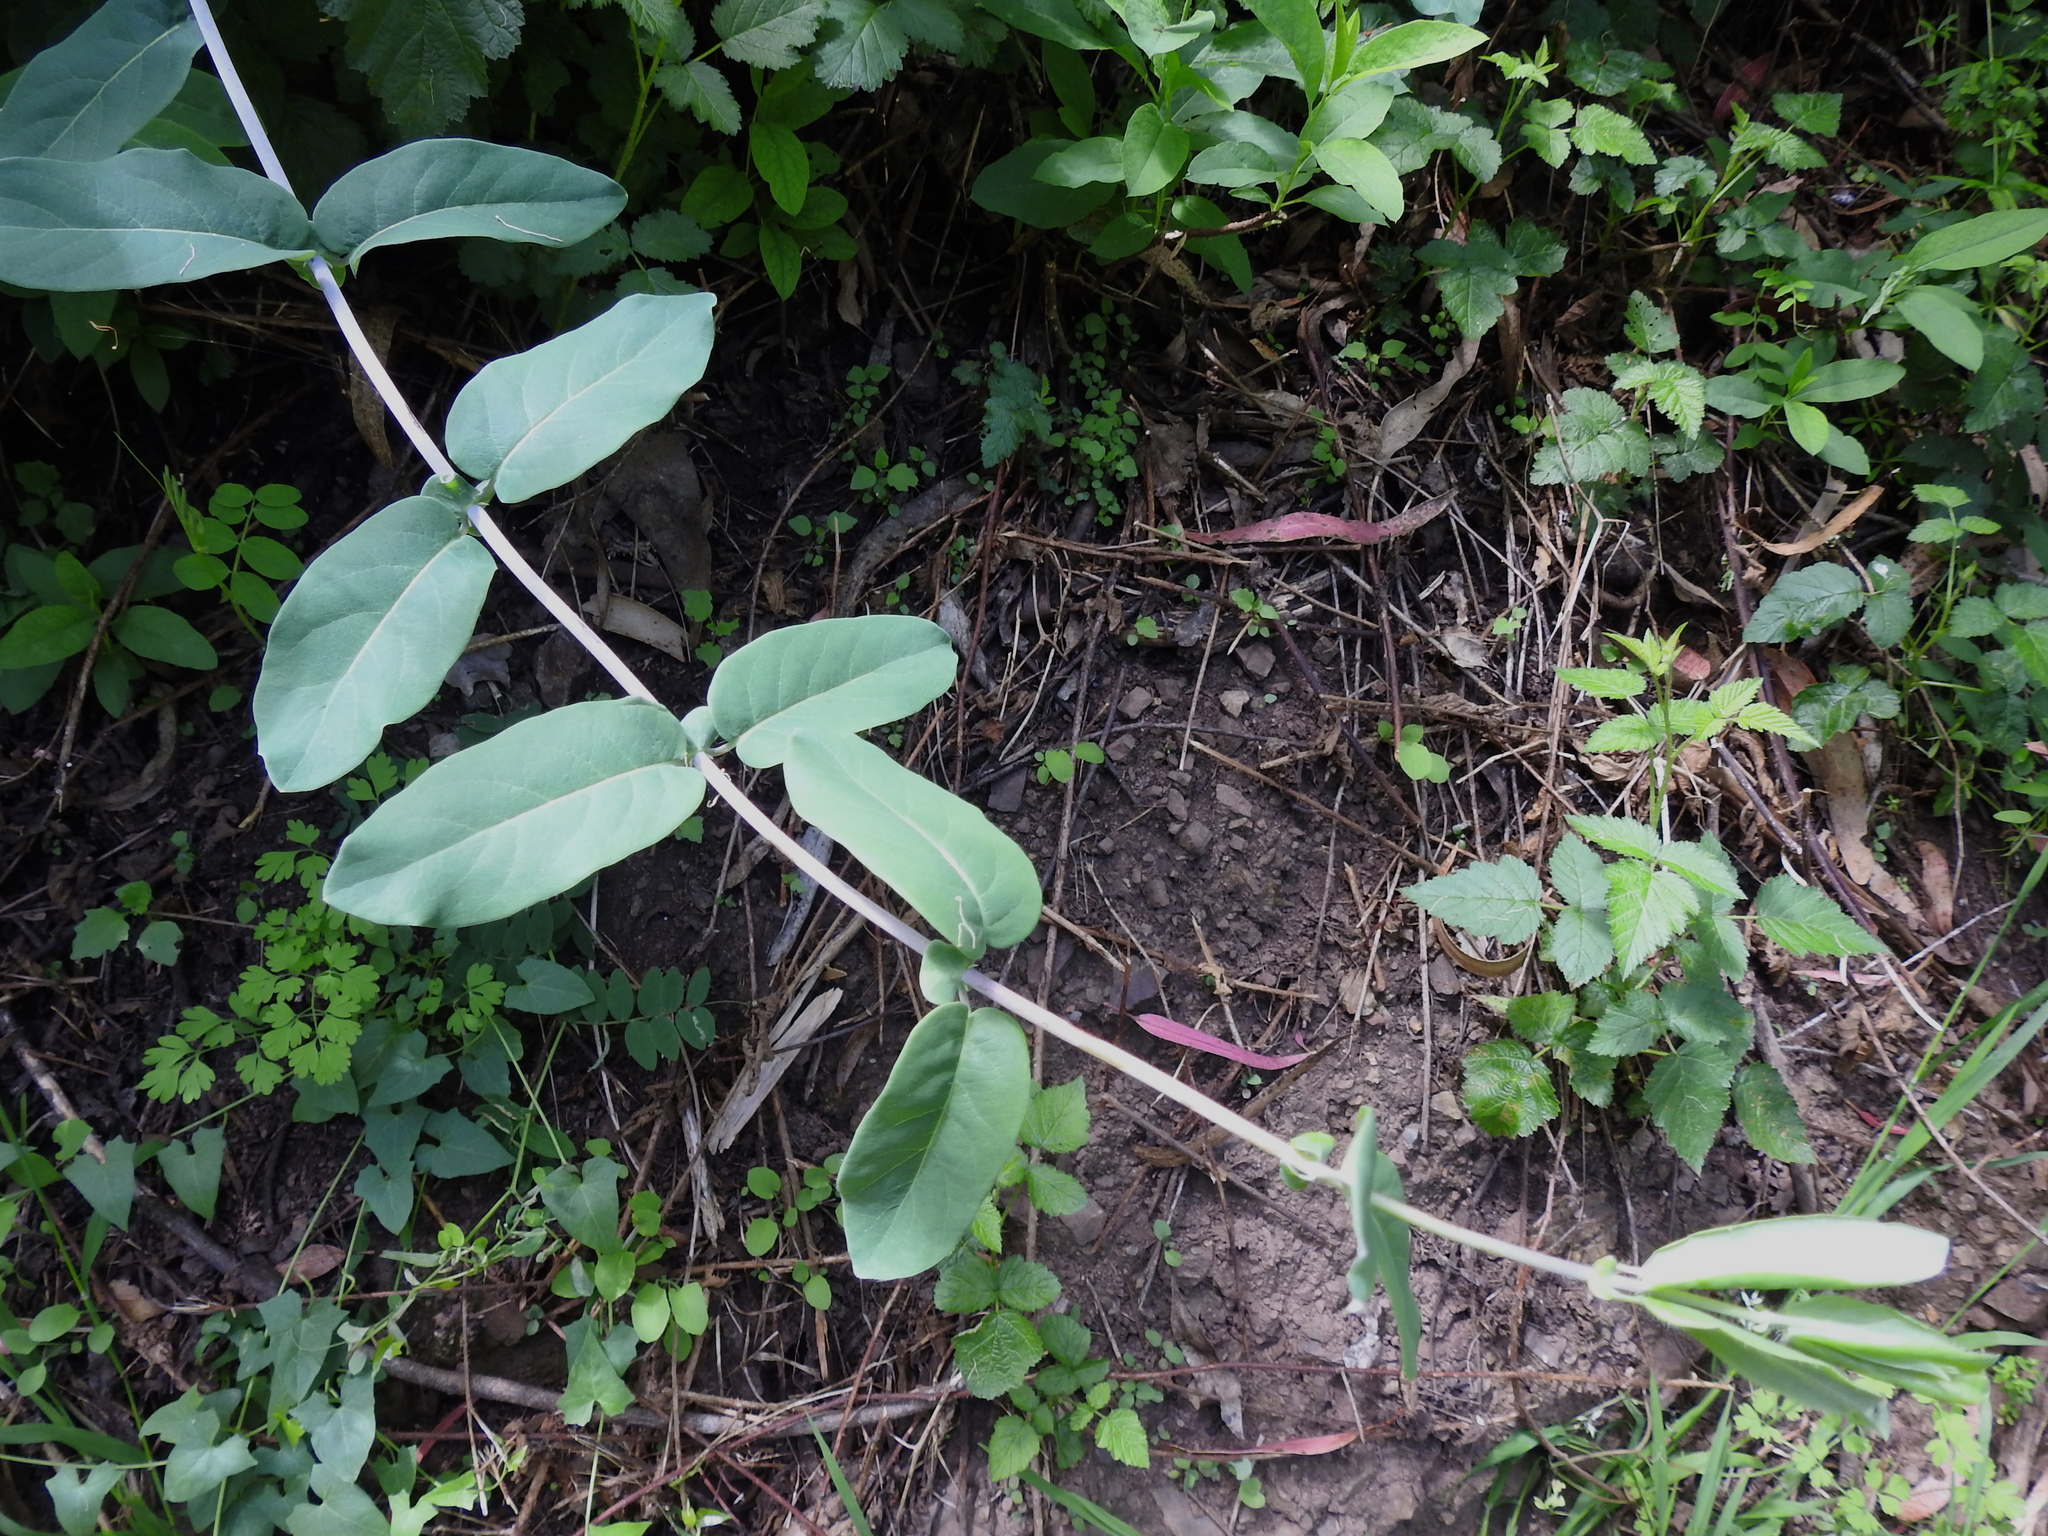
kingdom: Plantae
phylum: Tracheophyta
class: Magnoliopsida
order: Dipsacales
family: Caprifoliaceae
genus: Lonicera
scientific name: Lonicera hispidula
